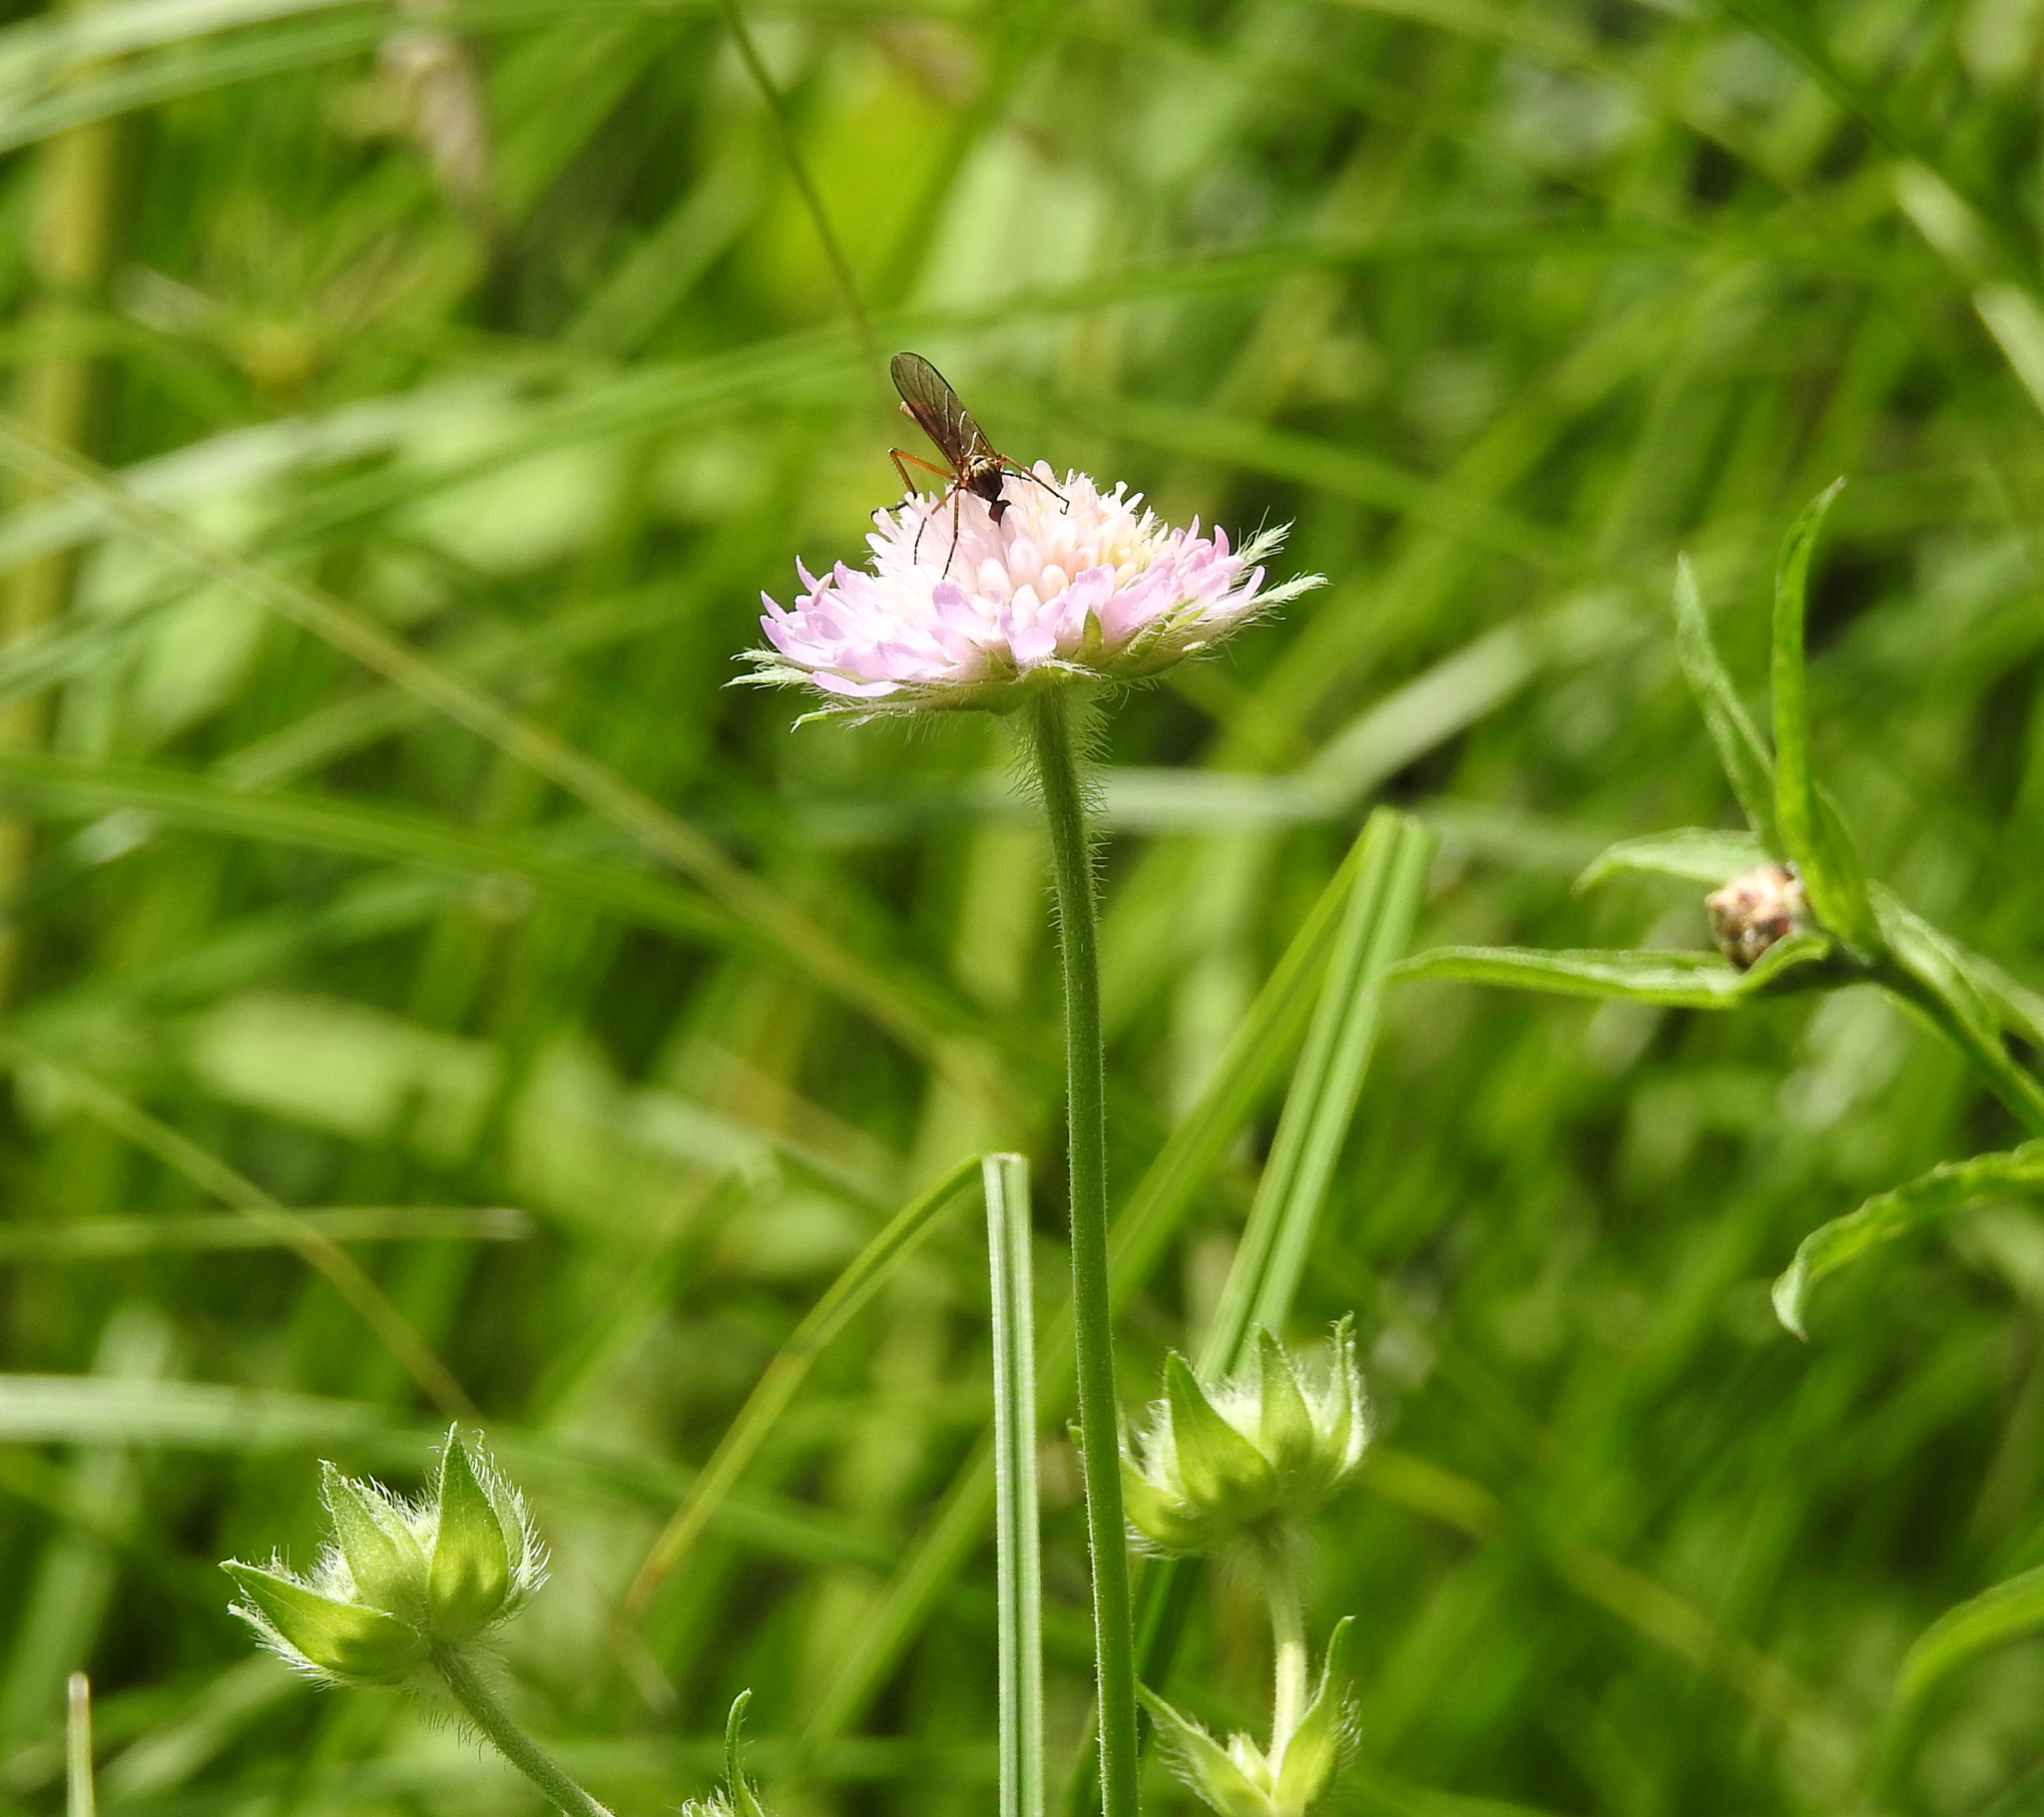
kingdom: Plantae
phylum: Tracheophyta
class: Magnoliopsida
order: Dipsacales
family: Caprifoliaceae
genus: Knautia
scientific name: Knautia arvensis
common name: Field scabiosa
